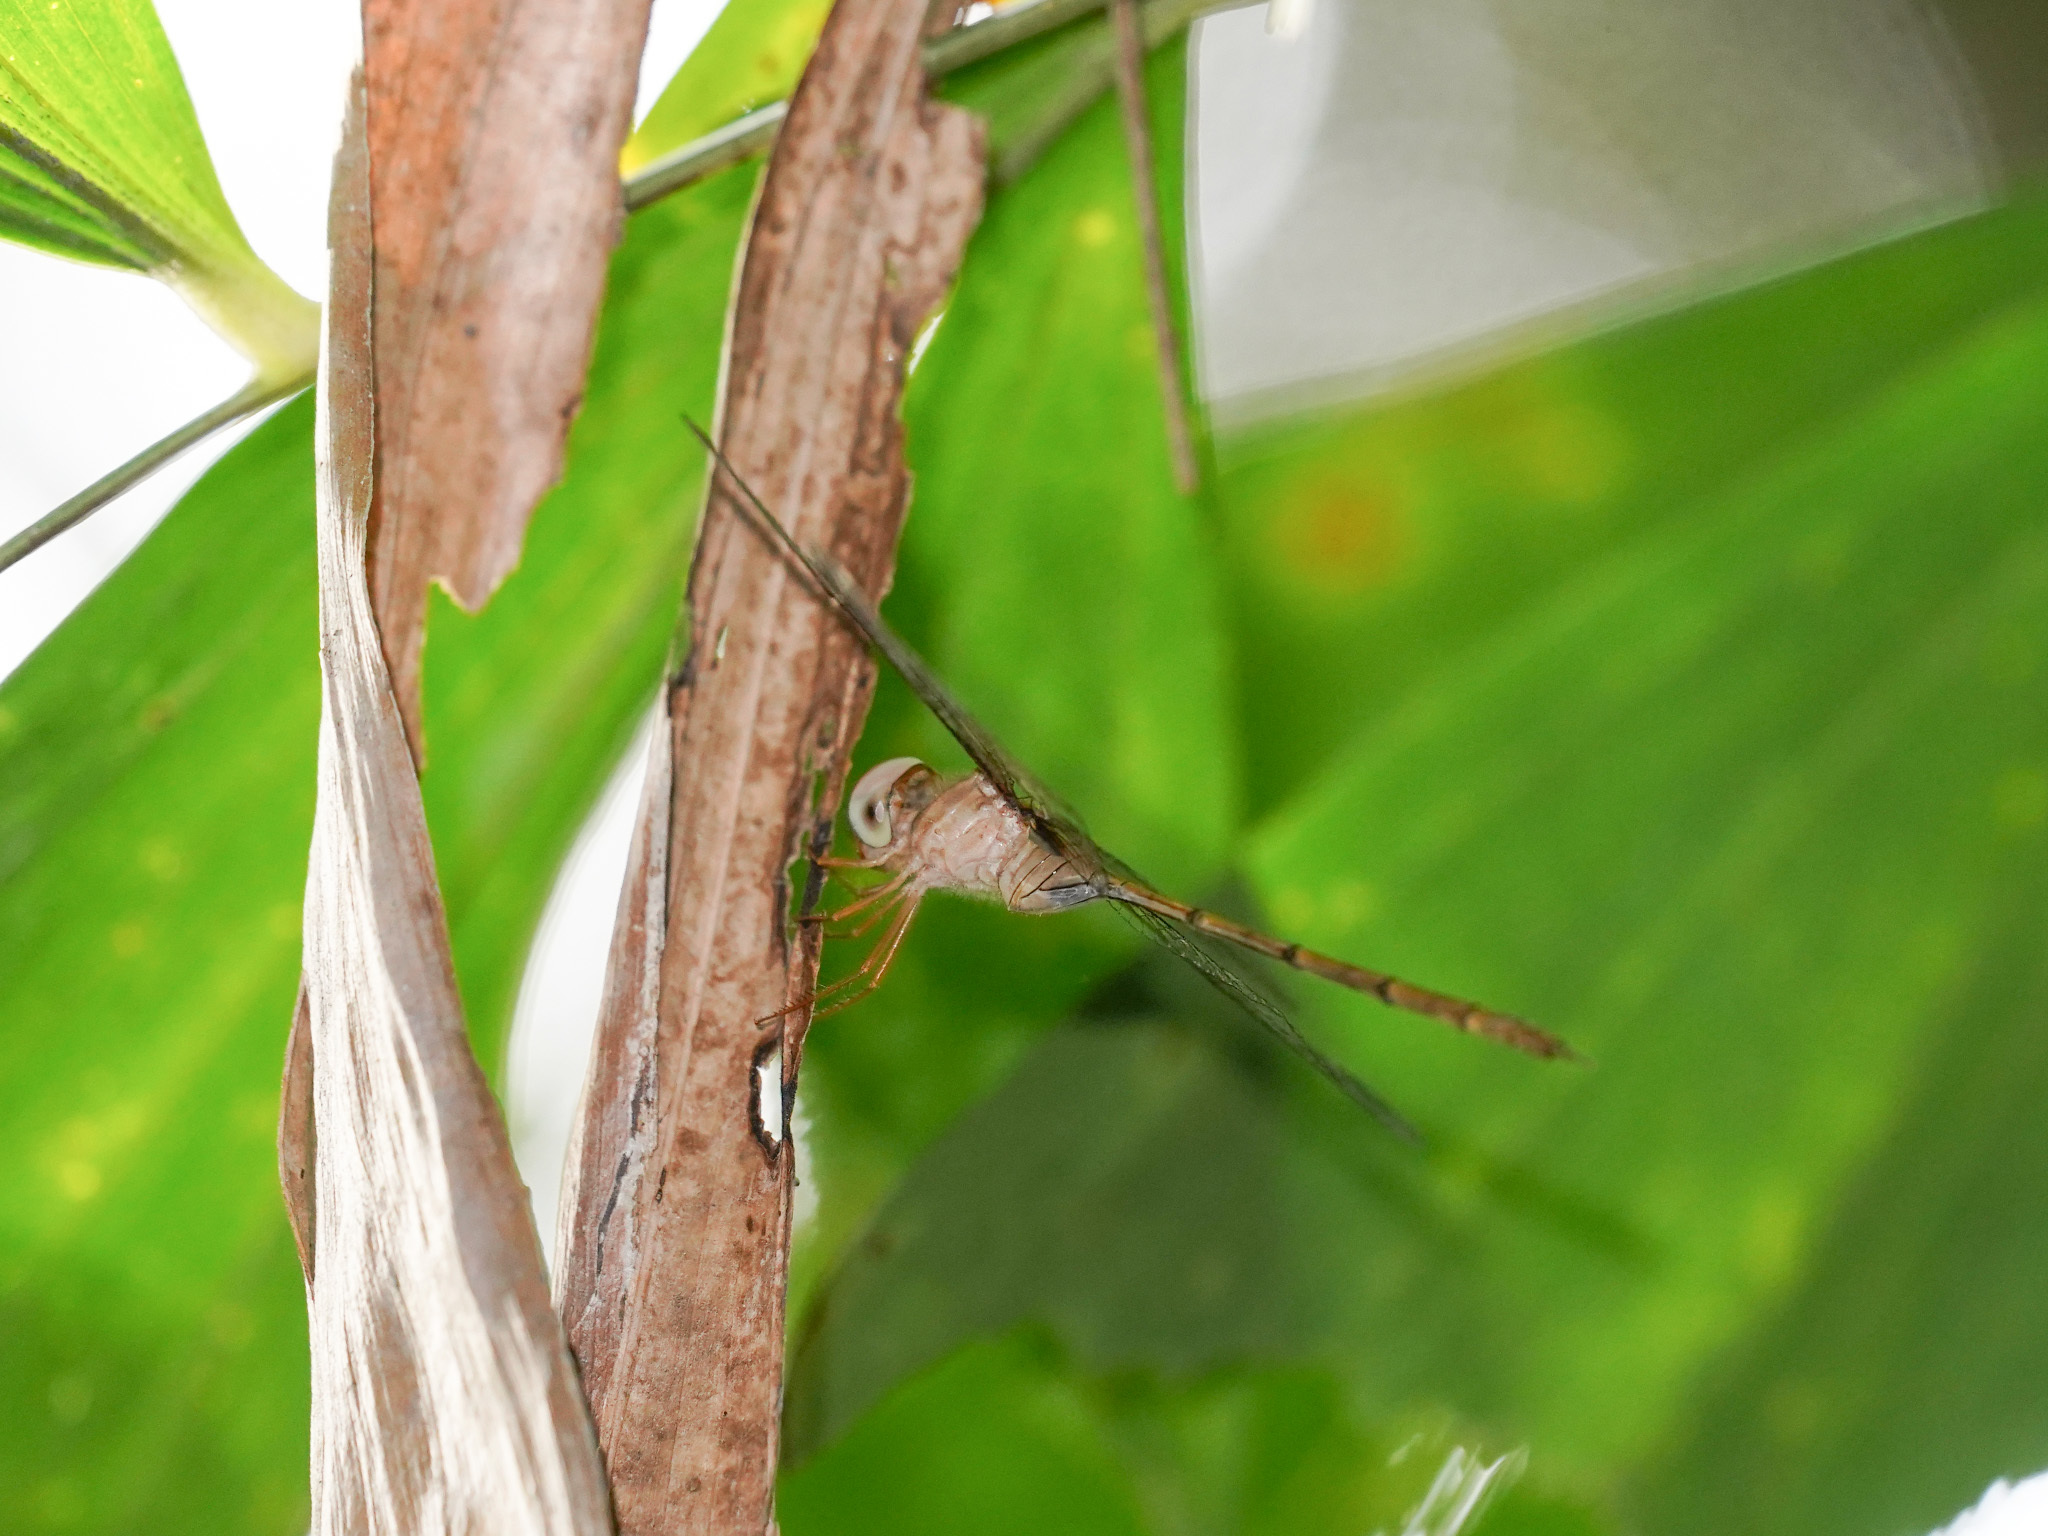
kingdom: Animalia
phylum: Arthropoda
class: Insecta
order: Odonata
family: Libellulidae
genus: Zyxomma
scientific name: Zyxomma petiolatum
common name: Dingy dusk-darter
